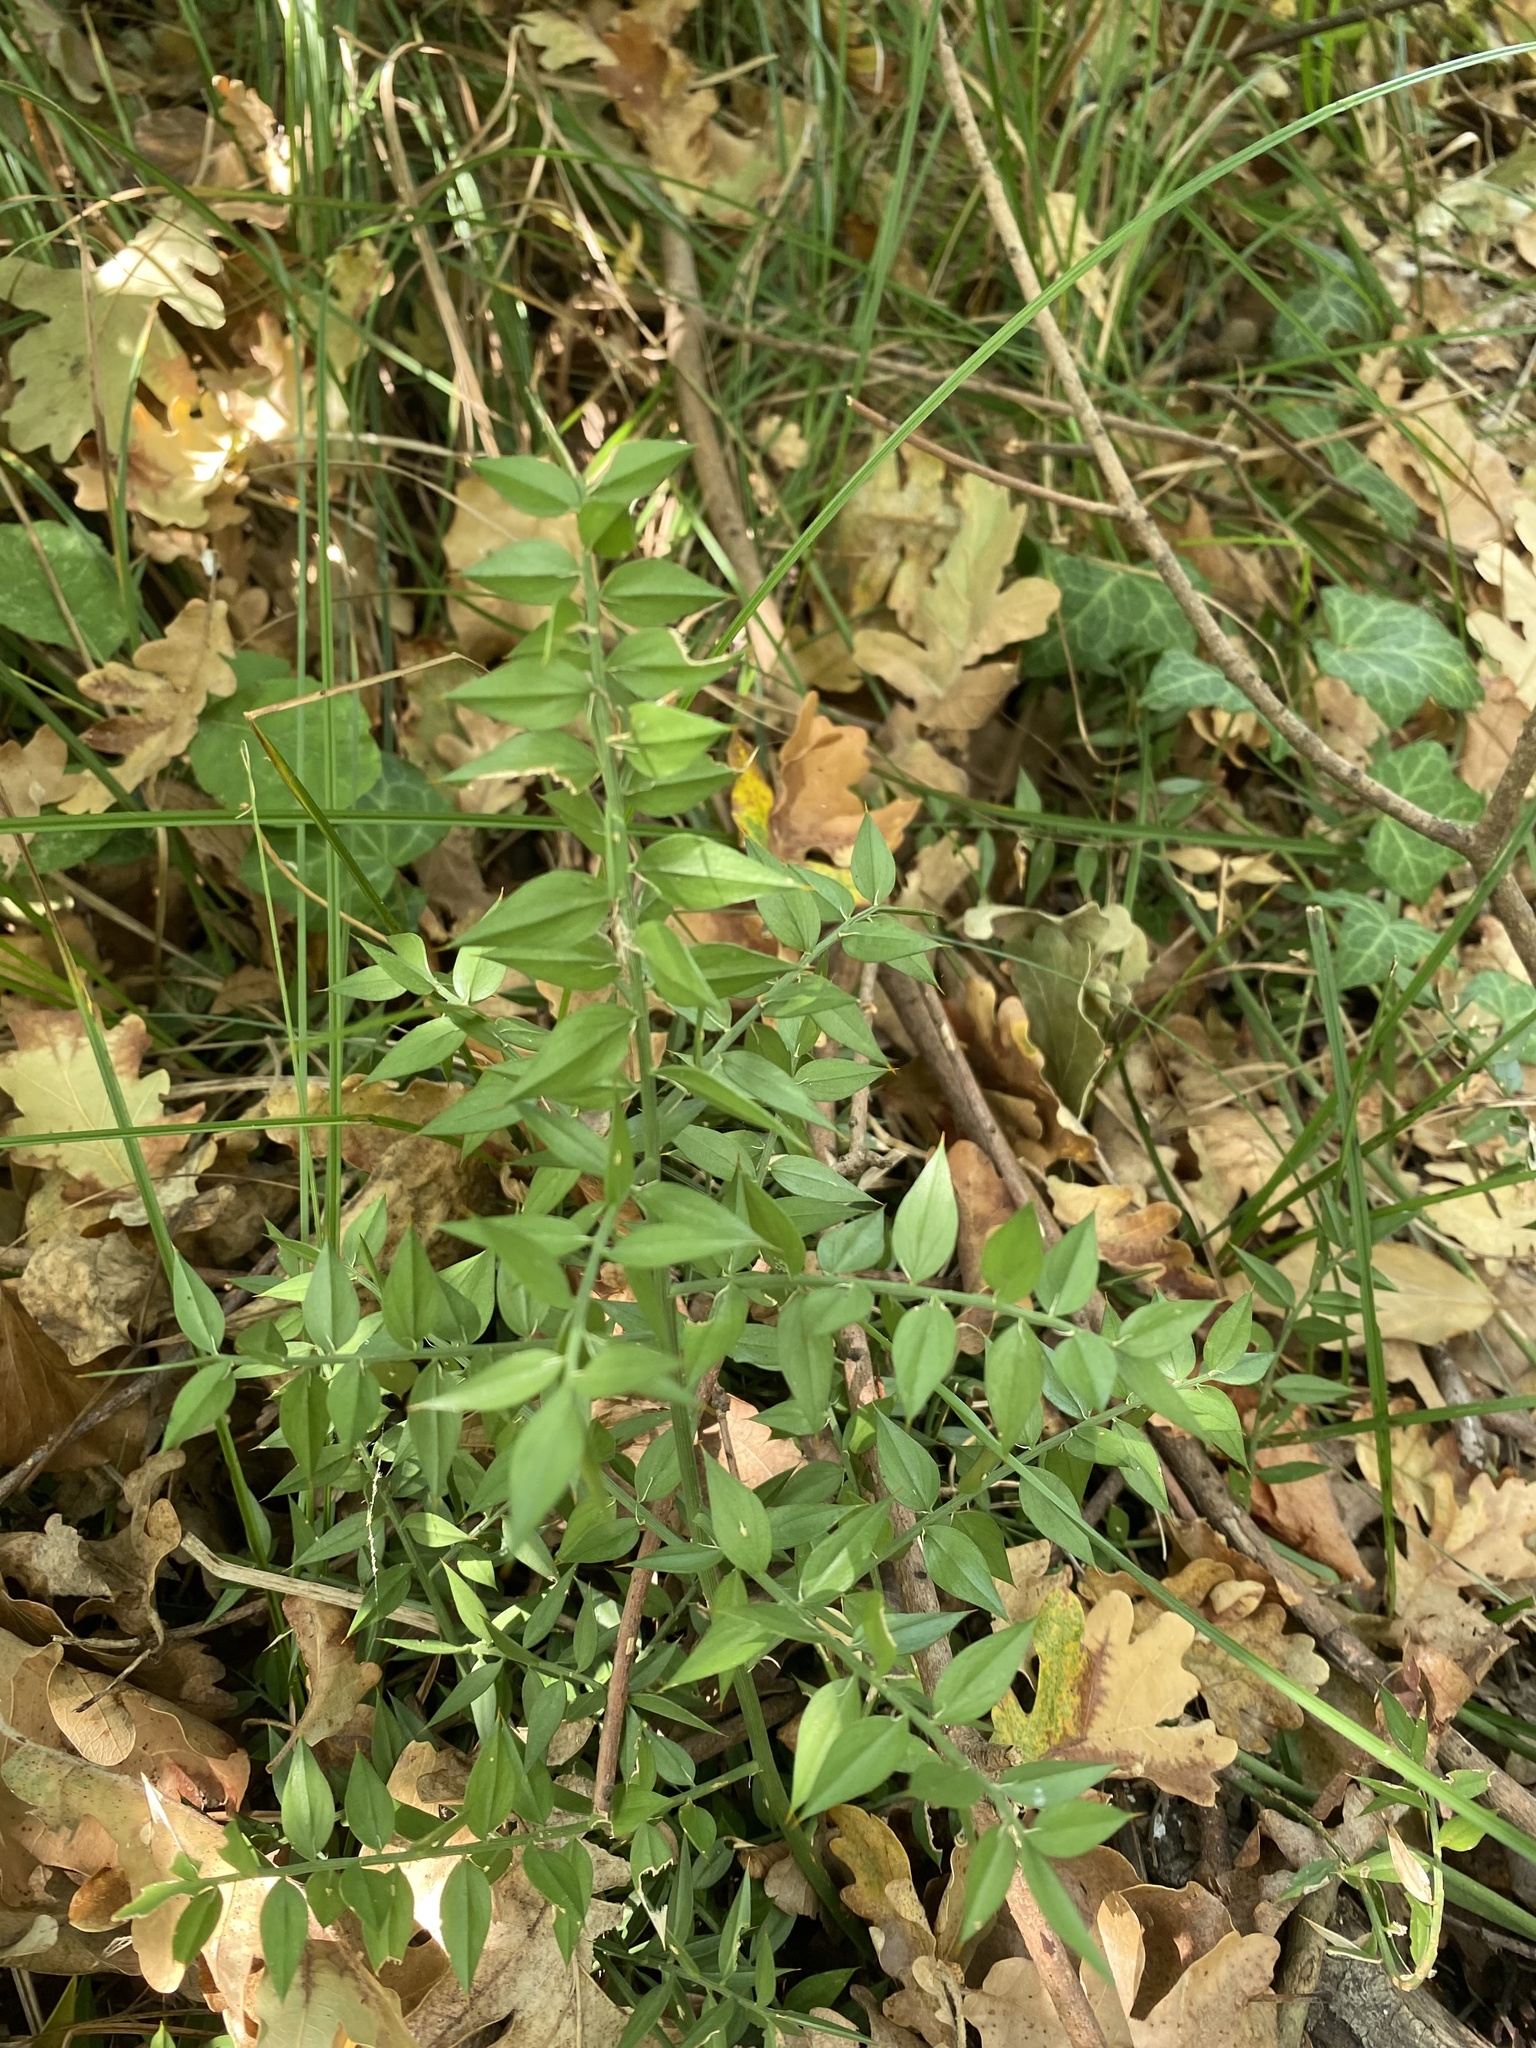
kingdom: Plantae
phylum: Tracheophyta
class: Liliopsida
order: Asparagales
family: Asparagaceae
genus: Ruscus
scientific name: Ruscus aculeatus
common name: Butcher's-broom
